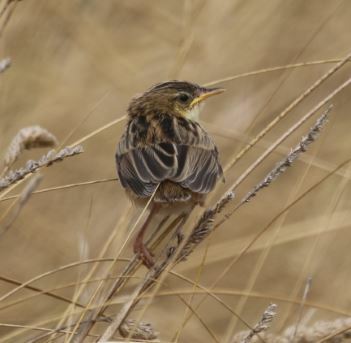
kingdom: Animalia
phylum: Chordata
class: Aves
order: Passeriformes
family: Cisticolidae
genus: Cisticola
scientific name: Cisticola juncidis
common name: Zitting cisticola
